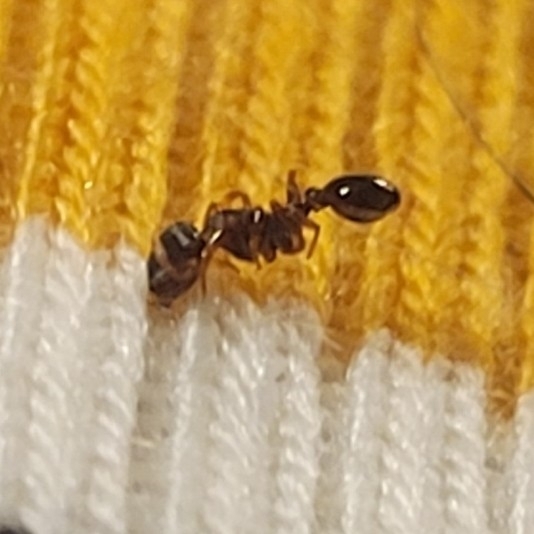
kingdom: Animalia
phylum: Arthropoda
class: Insecta
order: Hymenoptera
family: Formicidae
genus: Tetramorium
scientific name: Tetramorium immigrans
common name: Pavement ant
